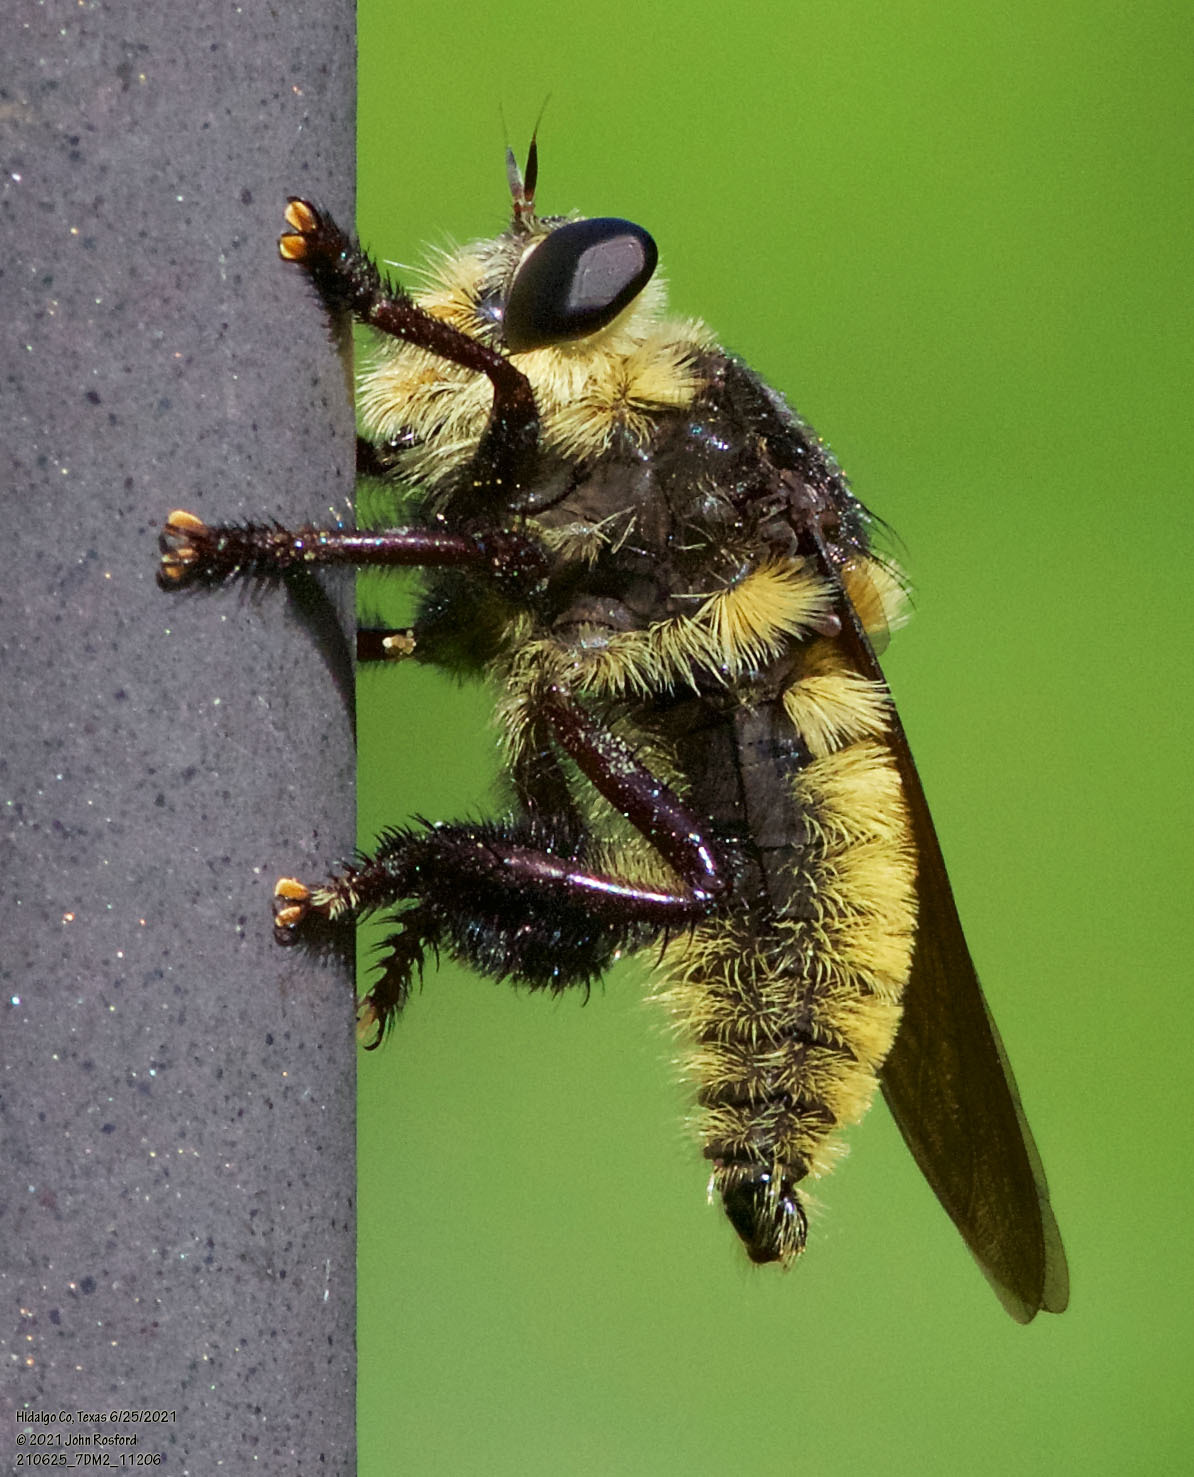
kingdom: Animalia
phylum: Arthropoda
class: Insecta
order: Diptera
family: Asilidae
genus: Mallophora
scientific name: Mallophora fautrix
